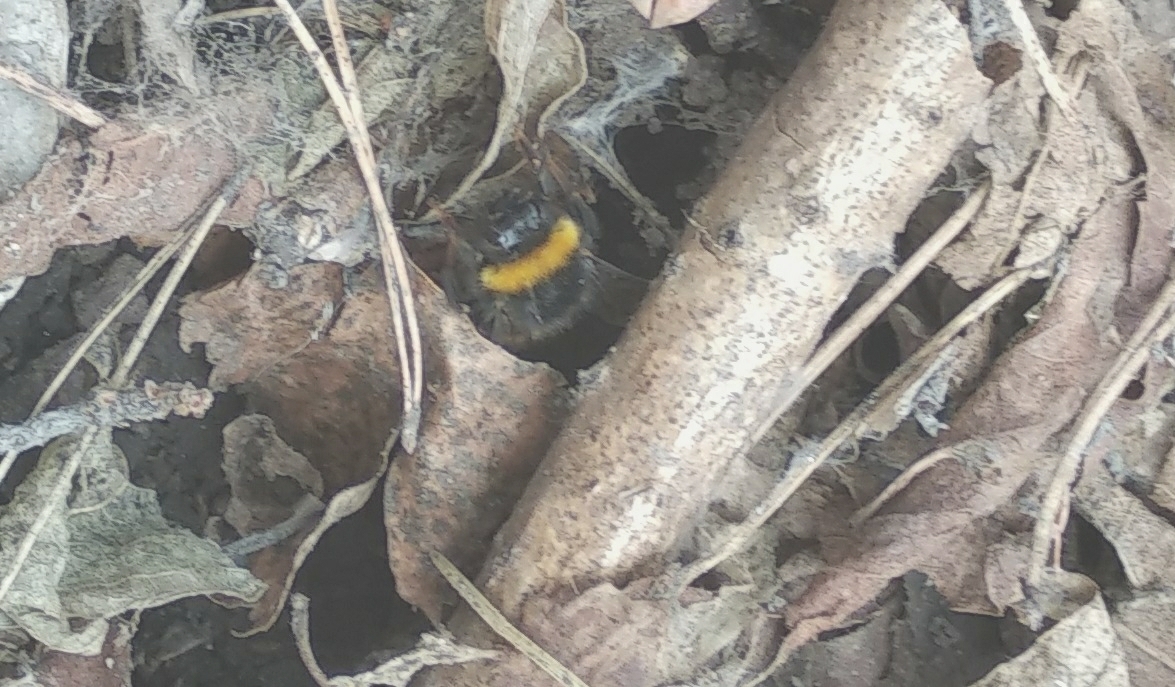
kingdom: Animalia
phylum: Arthropoda
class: Insecta
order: Hymenoptera
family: Apidae
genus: Bombus
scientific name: Bombus lucorum
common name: White-tailed bumblebee
